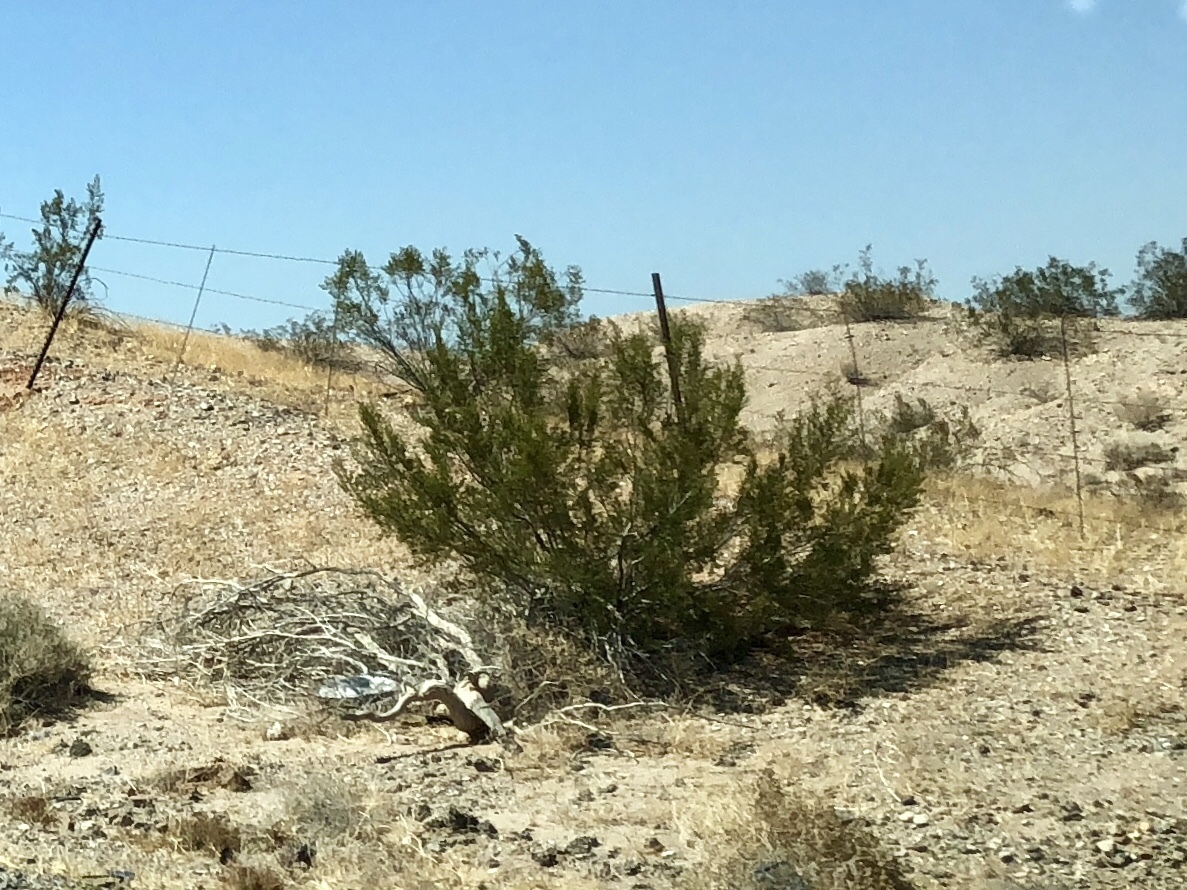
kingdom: Plantae
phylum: Tracheophyta
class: Magnoliopsida
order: Zygophyllales
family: Zygophyllaceae
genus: Larrea
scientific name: Larrea tridentata
